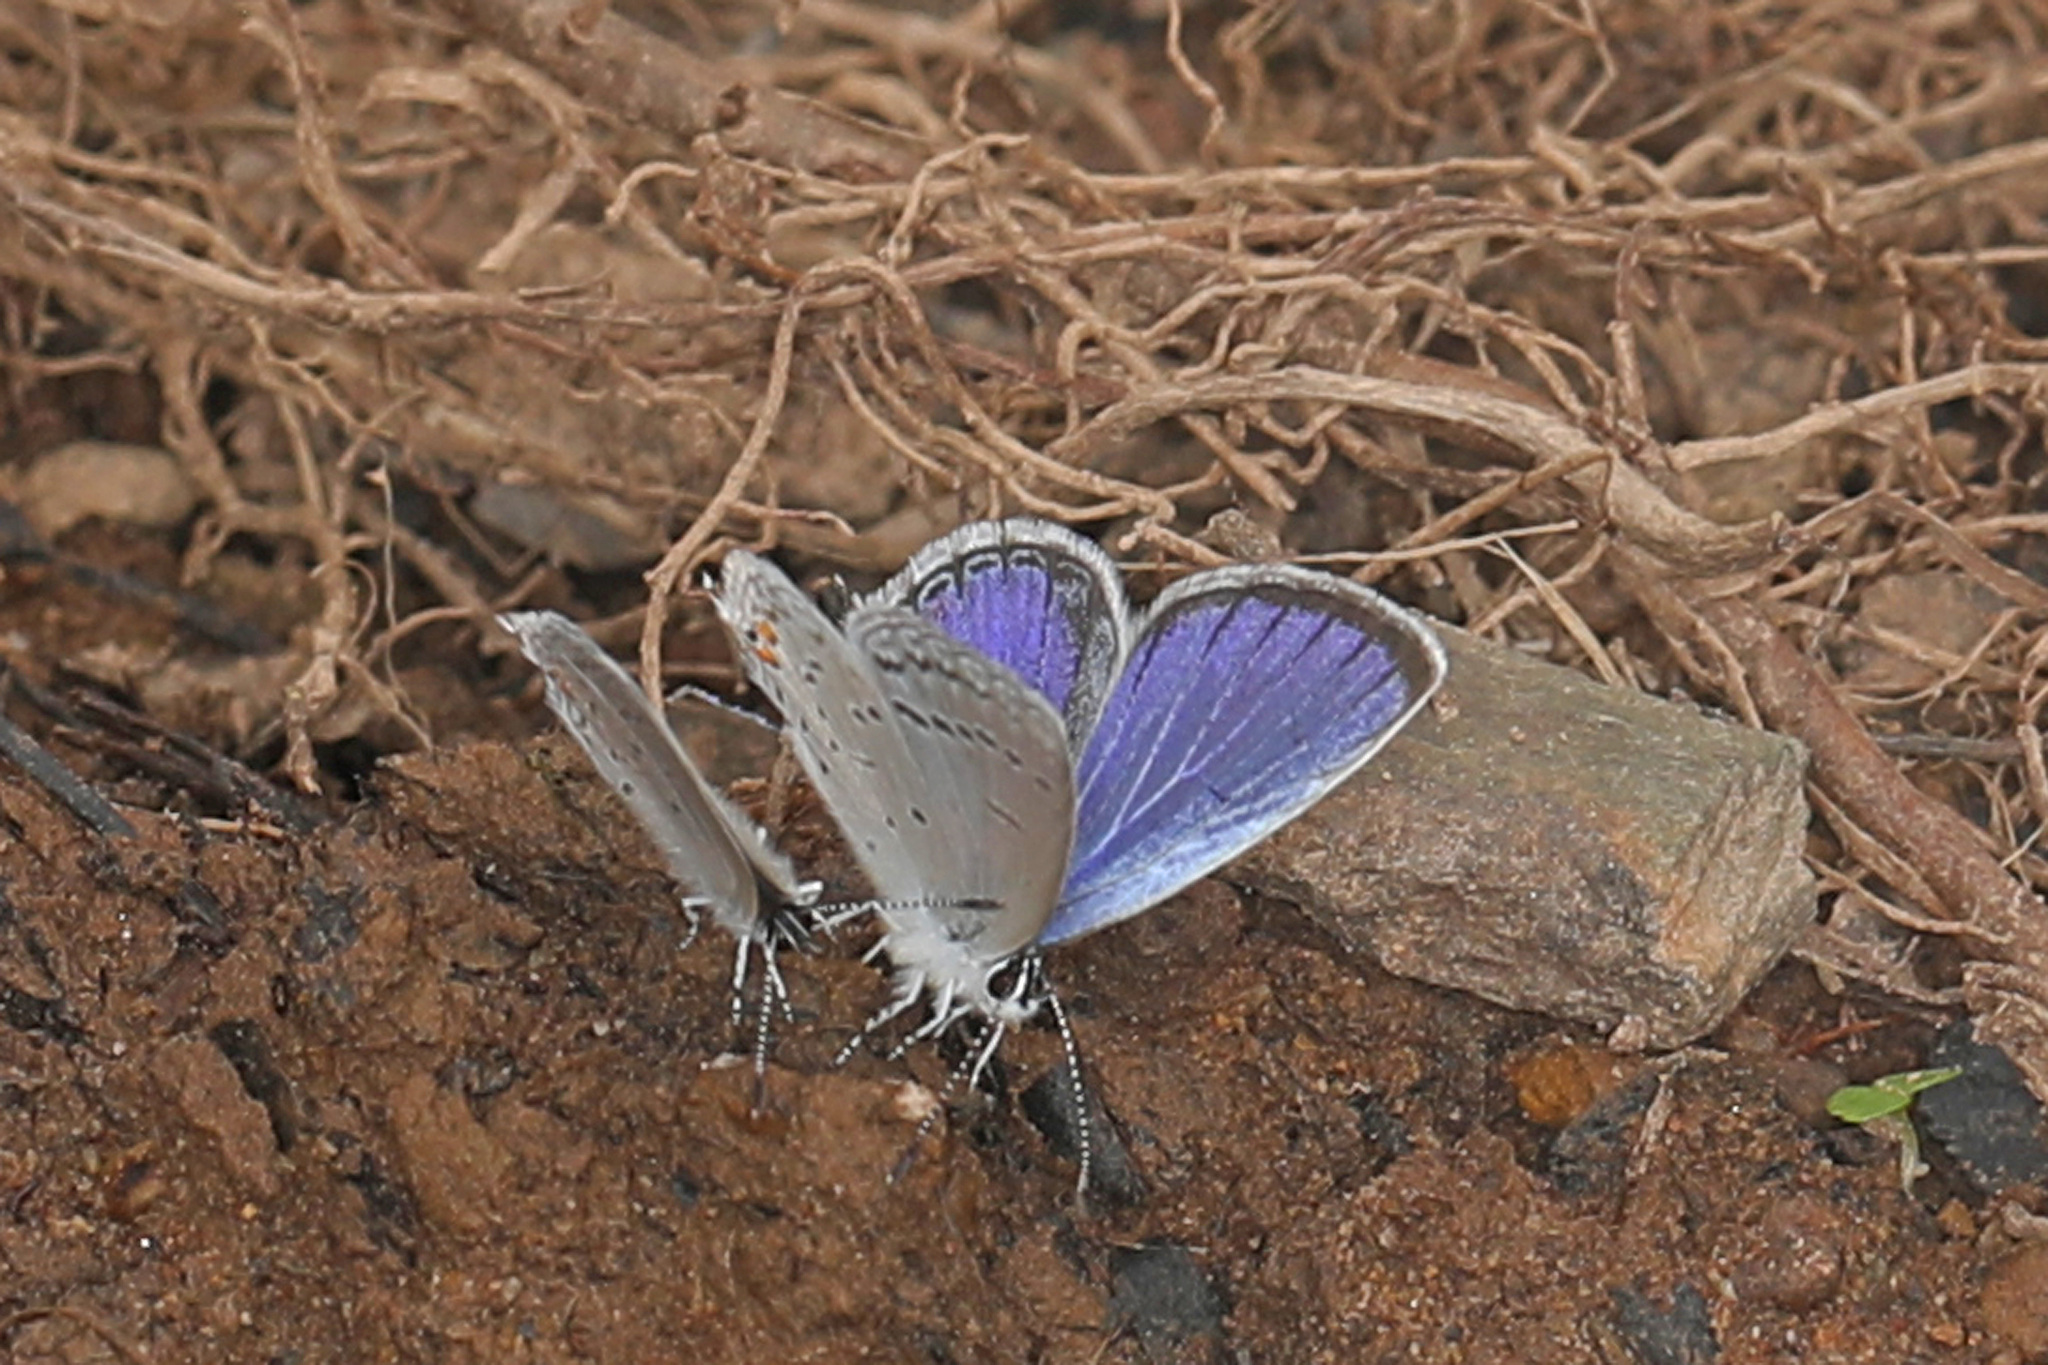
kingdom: Animalia
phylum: Arthropoda
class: Insecta
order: Lepidoptera
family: Lycaenidae
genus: Elkalyce
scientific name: Elkalyce comyntas
